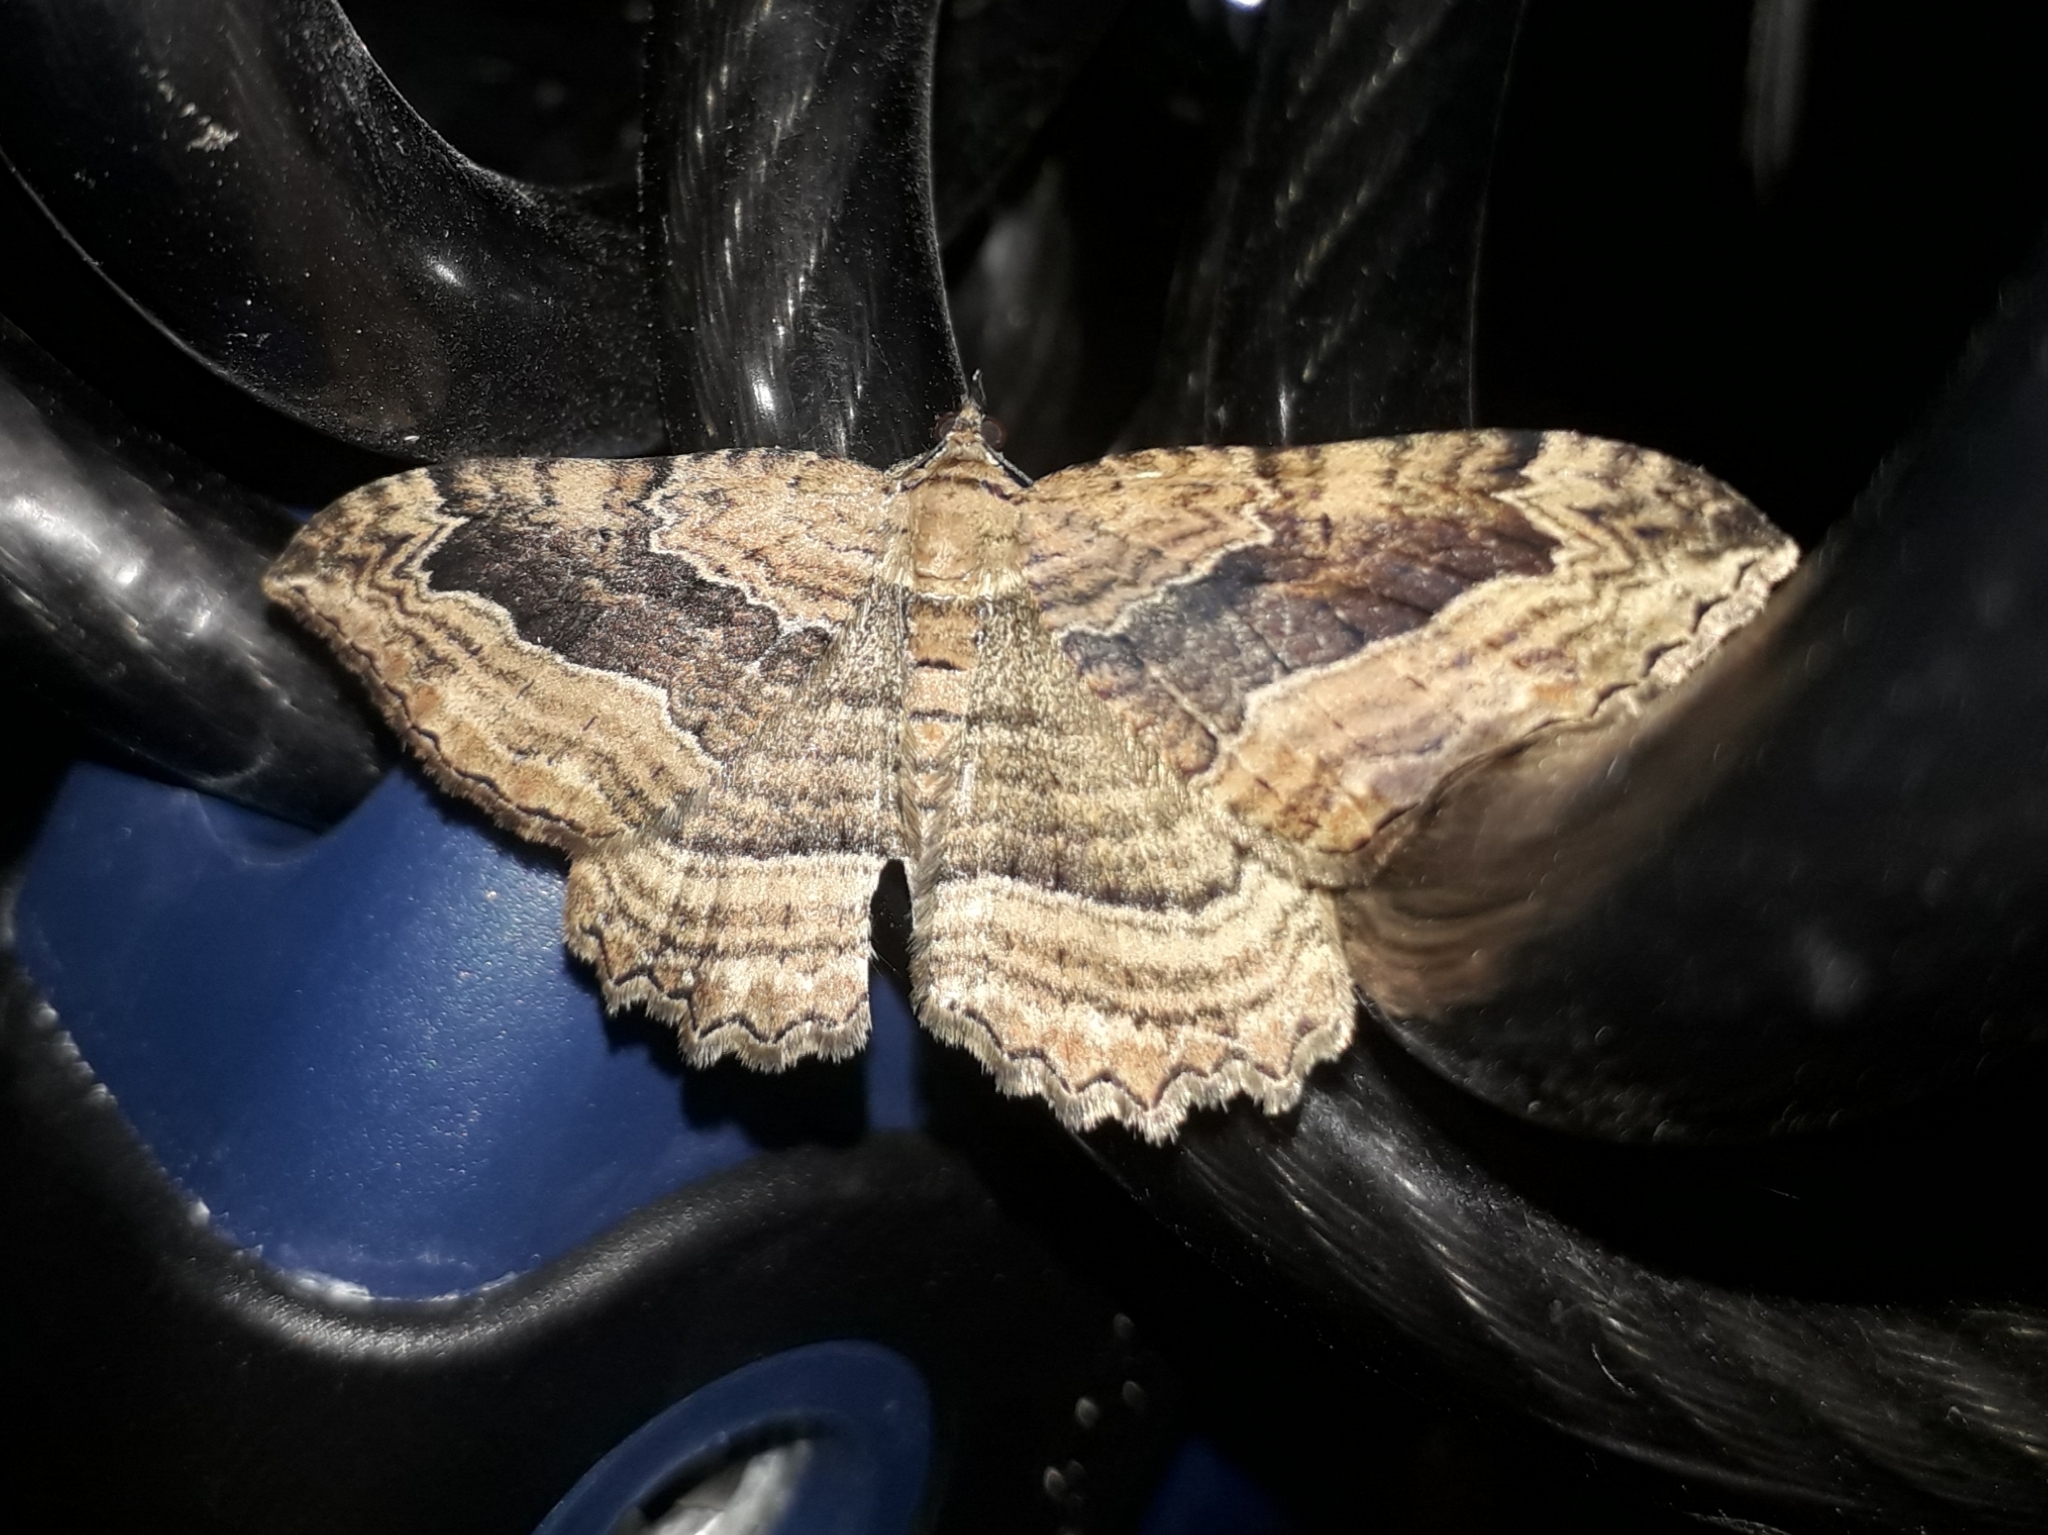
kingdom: Animalia
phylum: Arthropoda
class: Insecta
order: Lepidoptera
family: Geometridae
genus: Philereme
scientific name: Philereme transversata
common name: Dark umber
